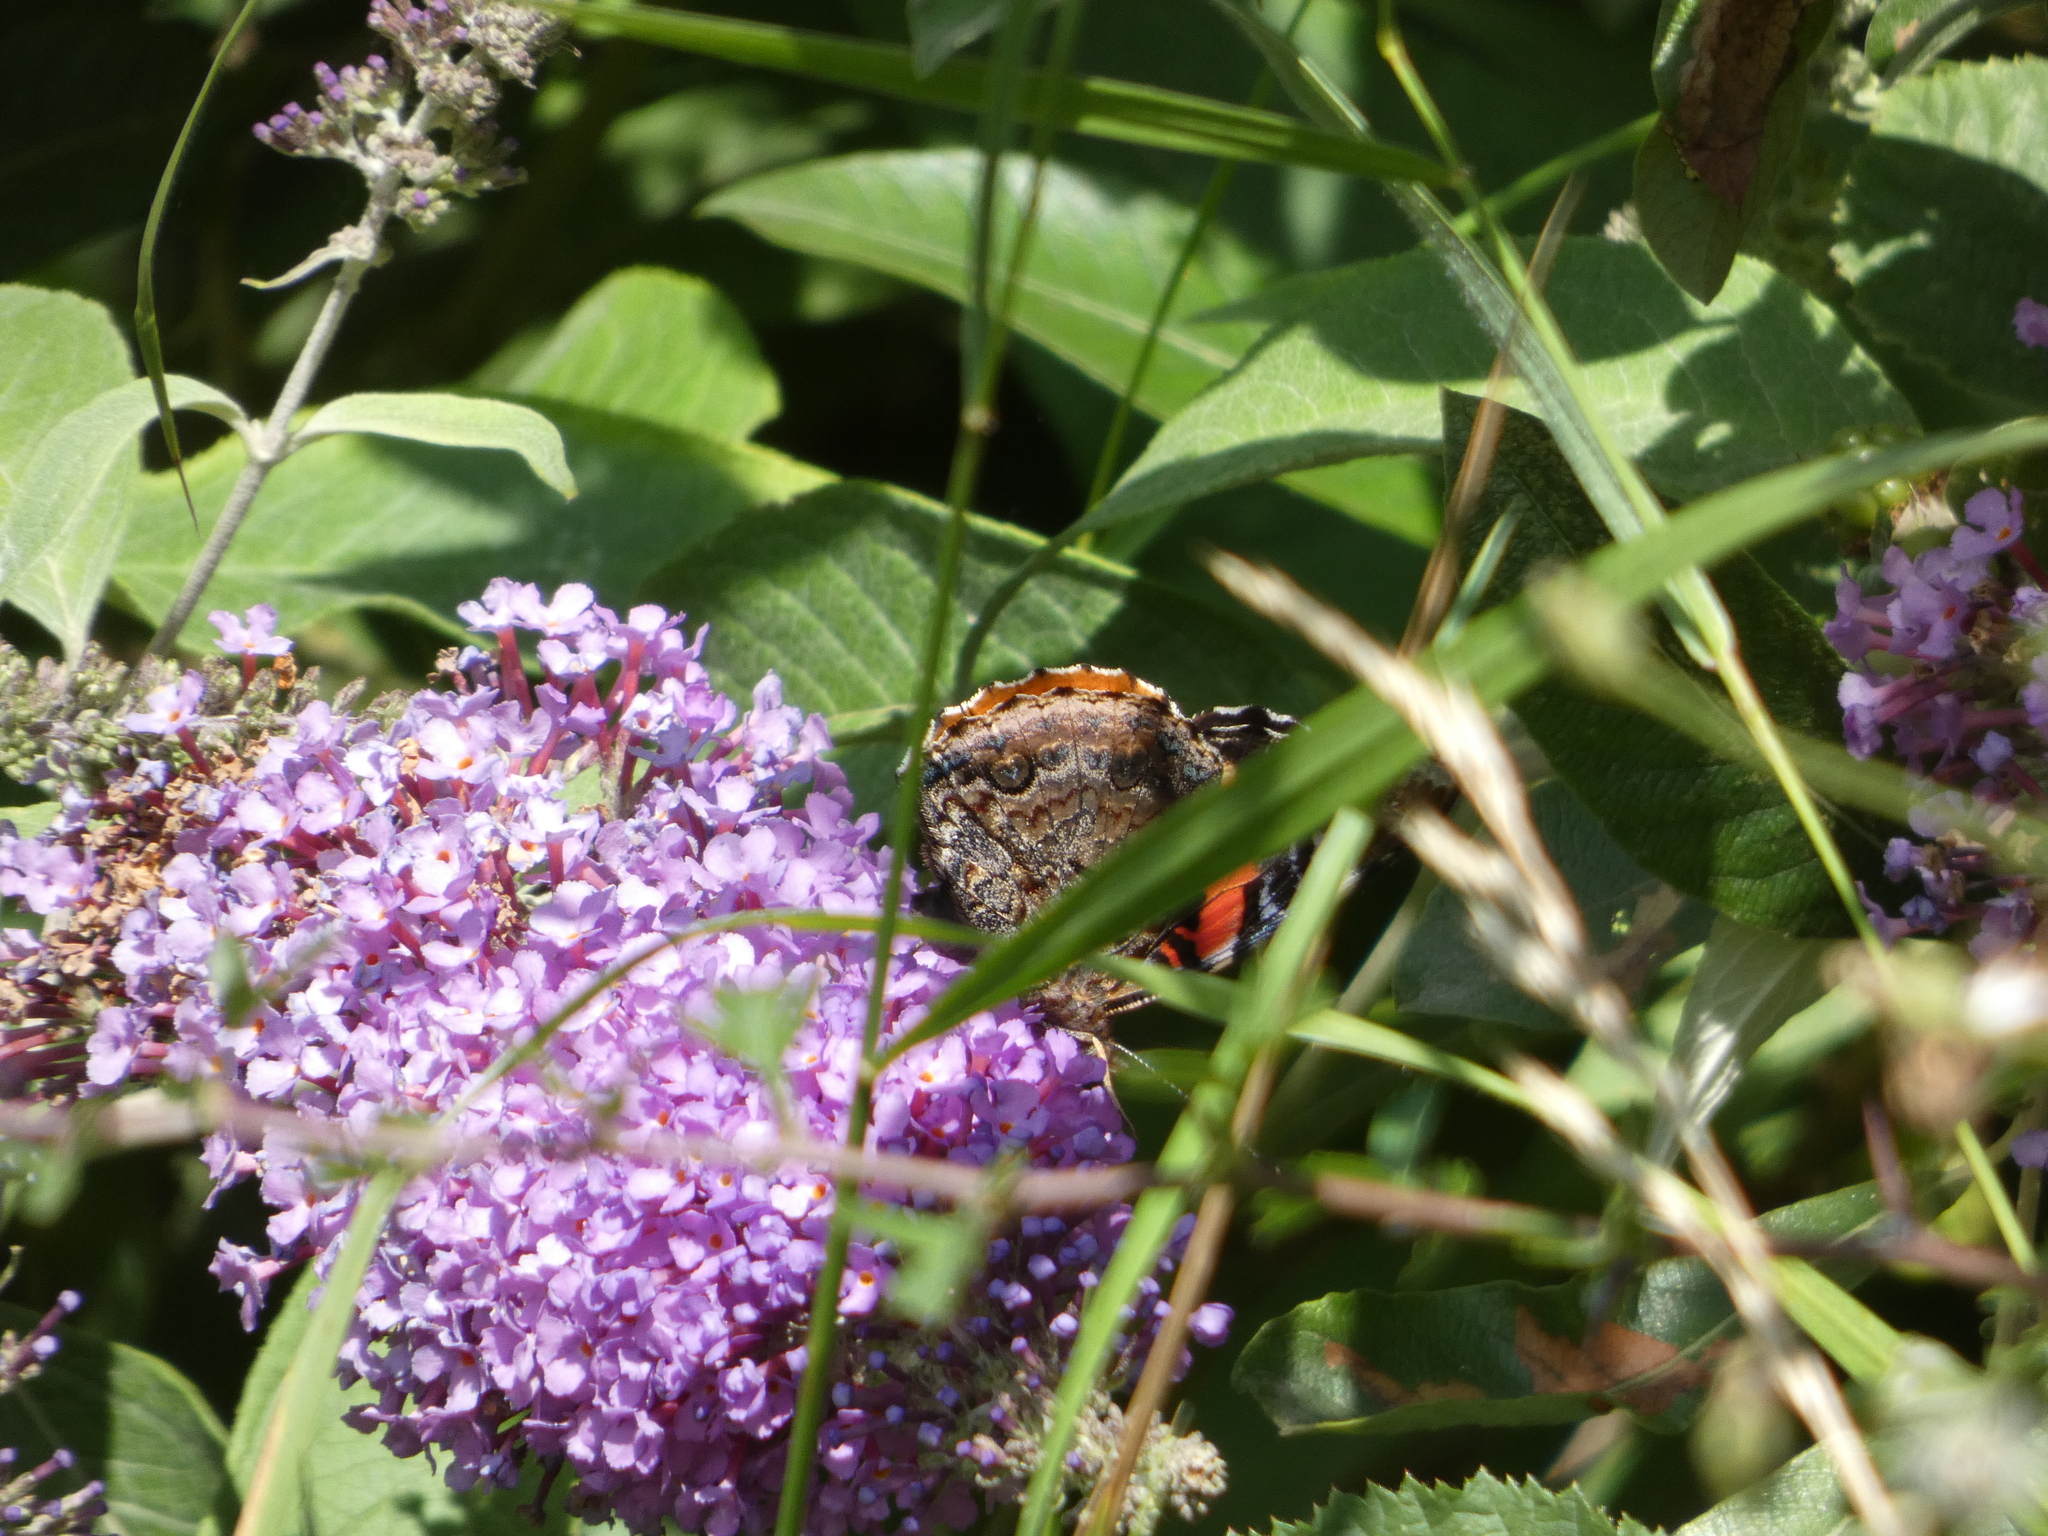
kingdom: Animalia
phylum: Arthropoda
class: Insecta
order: Lepidoptera
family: Nymphalidae
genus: Vanessa
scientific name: Vanessa atalanta
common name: Red admiral
